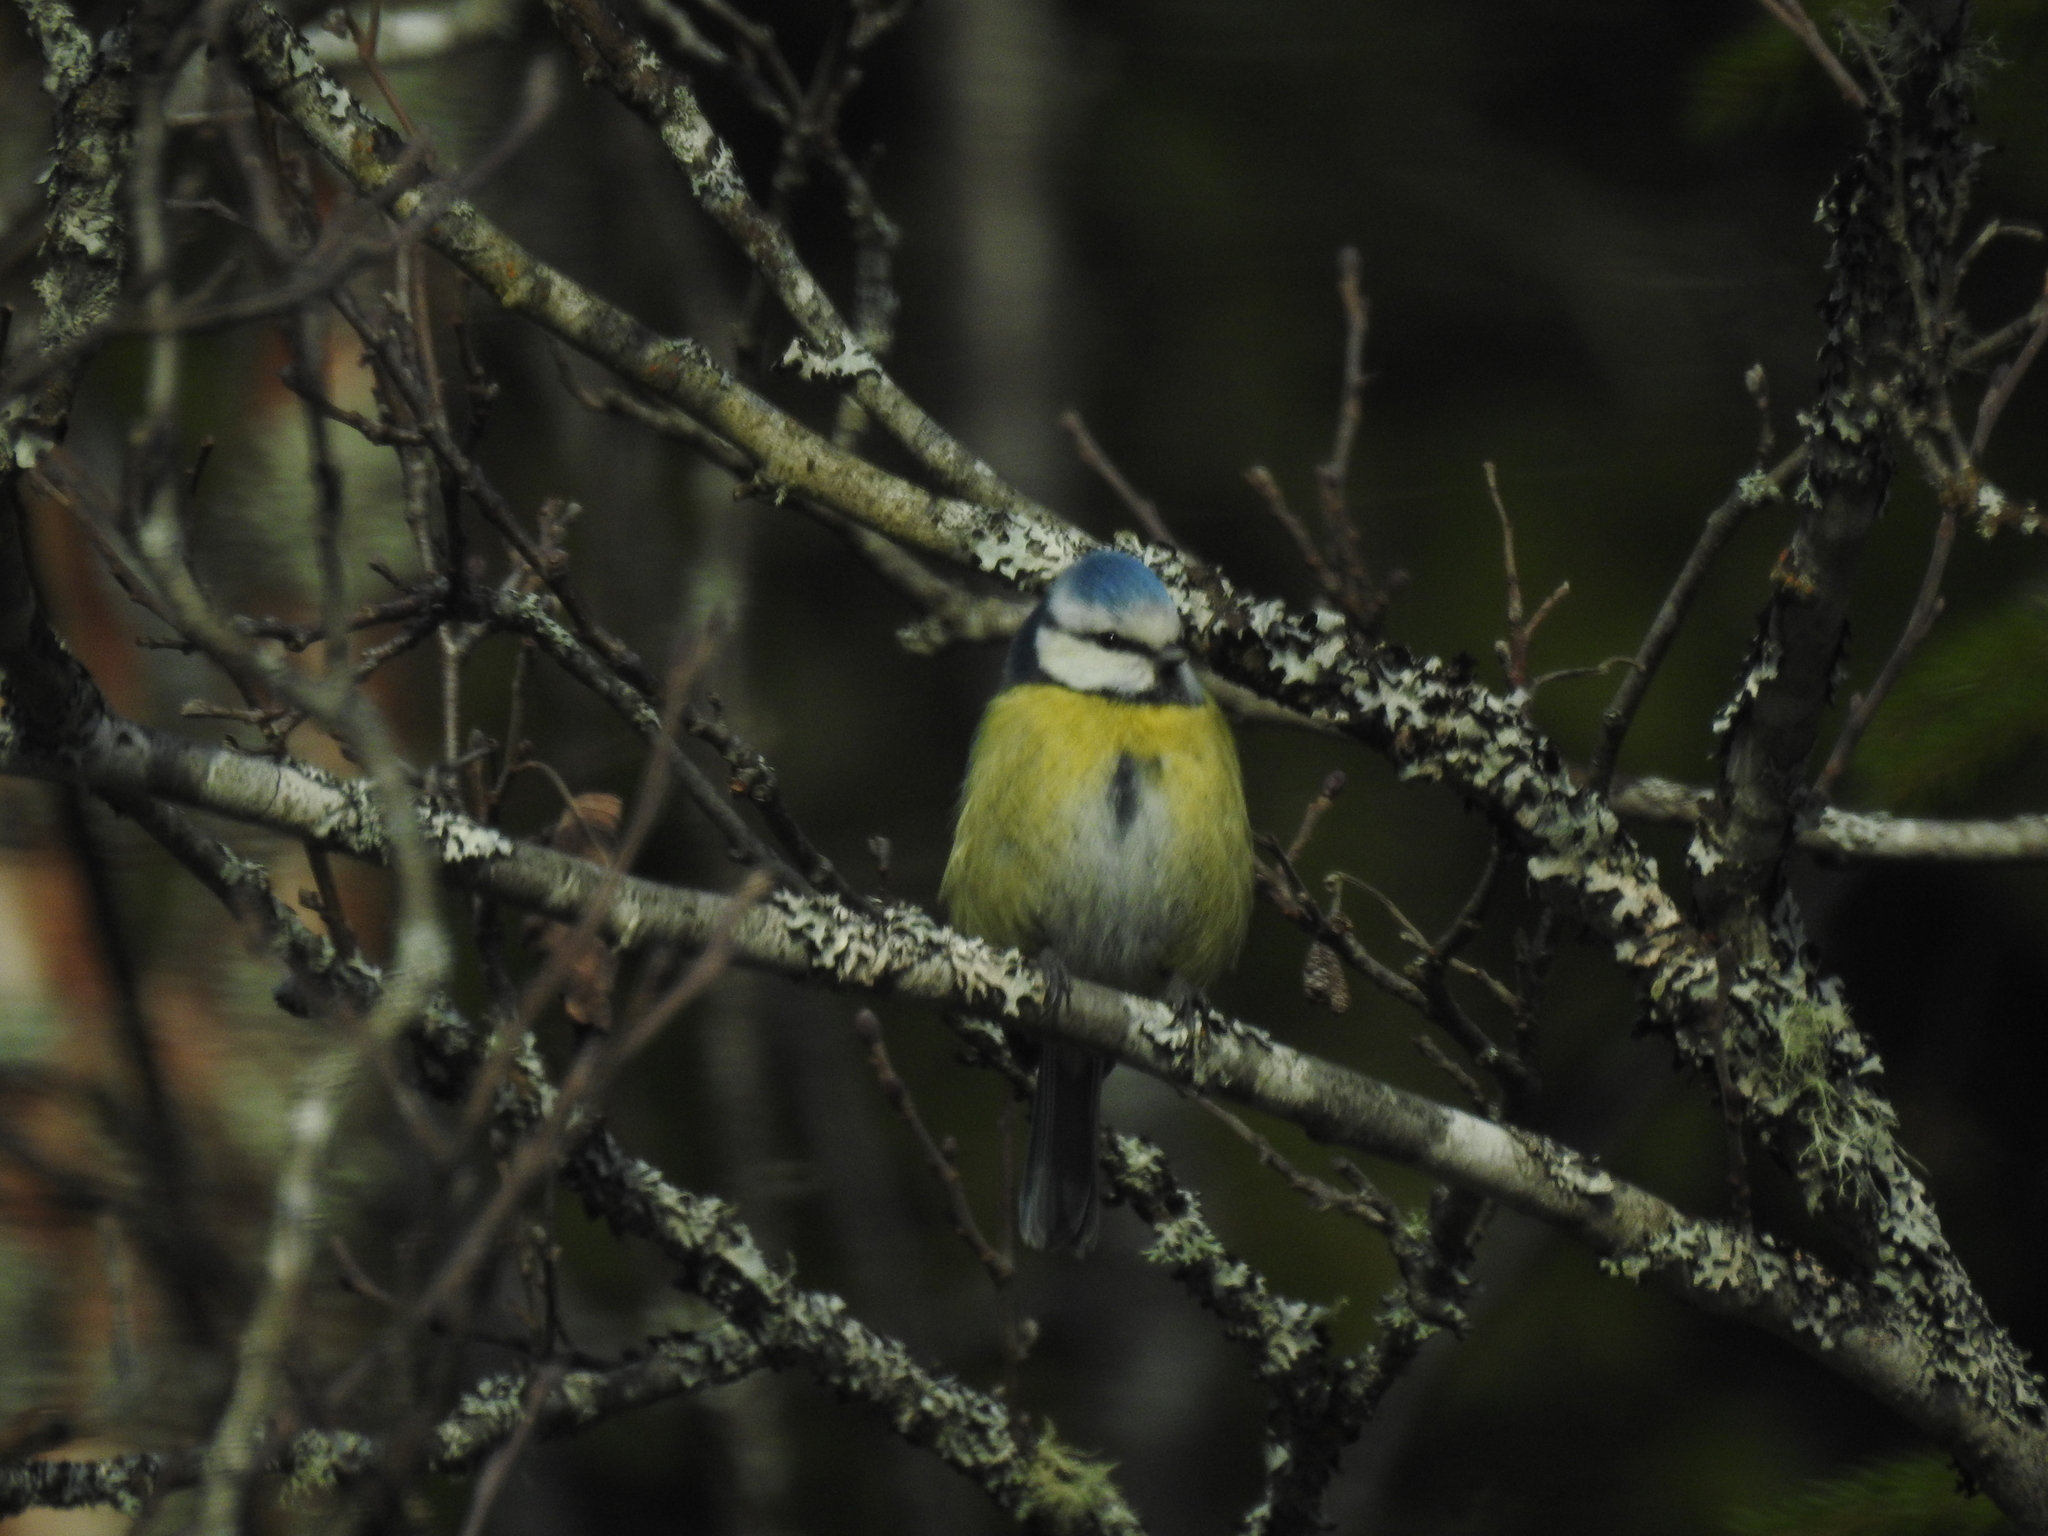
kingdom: Animalia
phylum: Chordata
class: Aves
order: Passeriformes
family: Paridae
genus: Cyanistes
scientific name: Cyanistes caeruleus
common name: Eurasian blue tit
